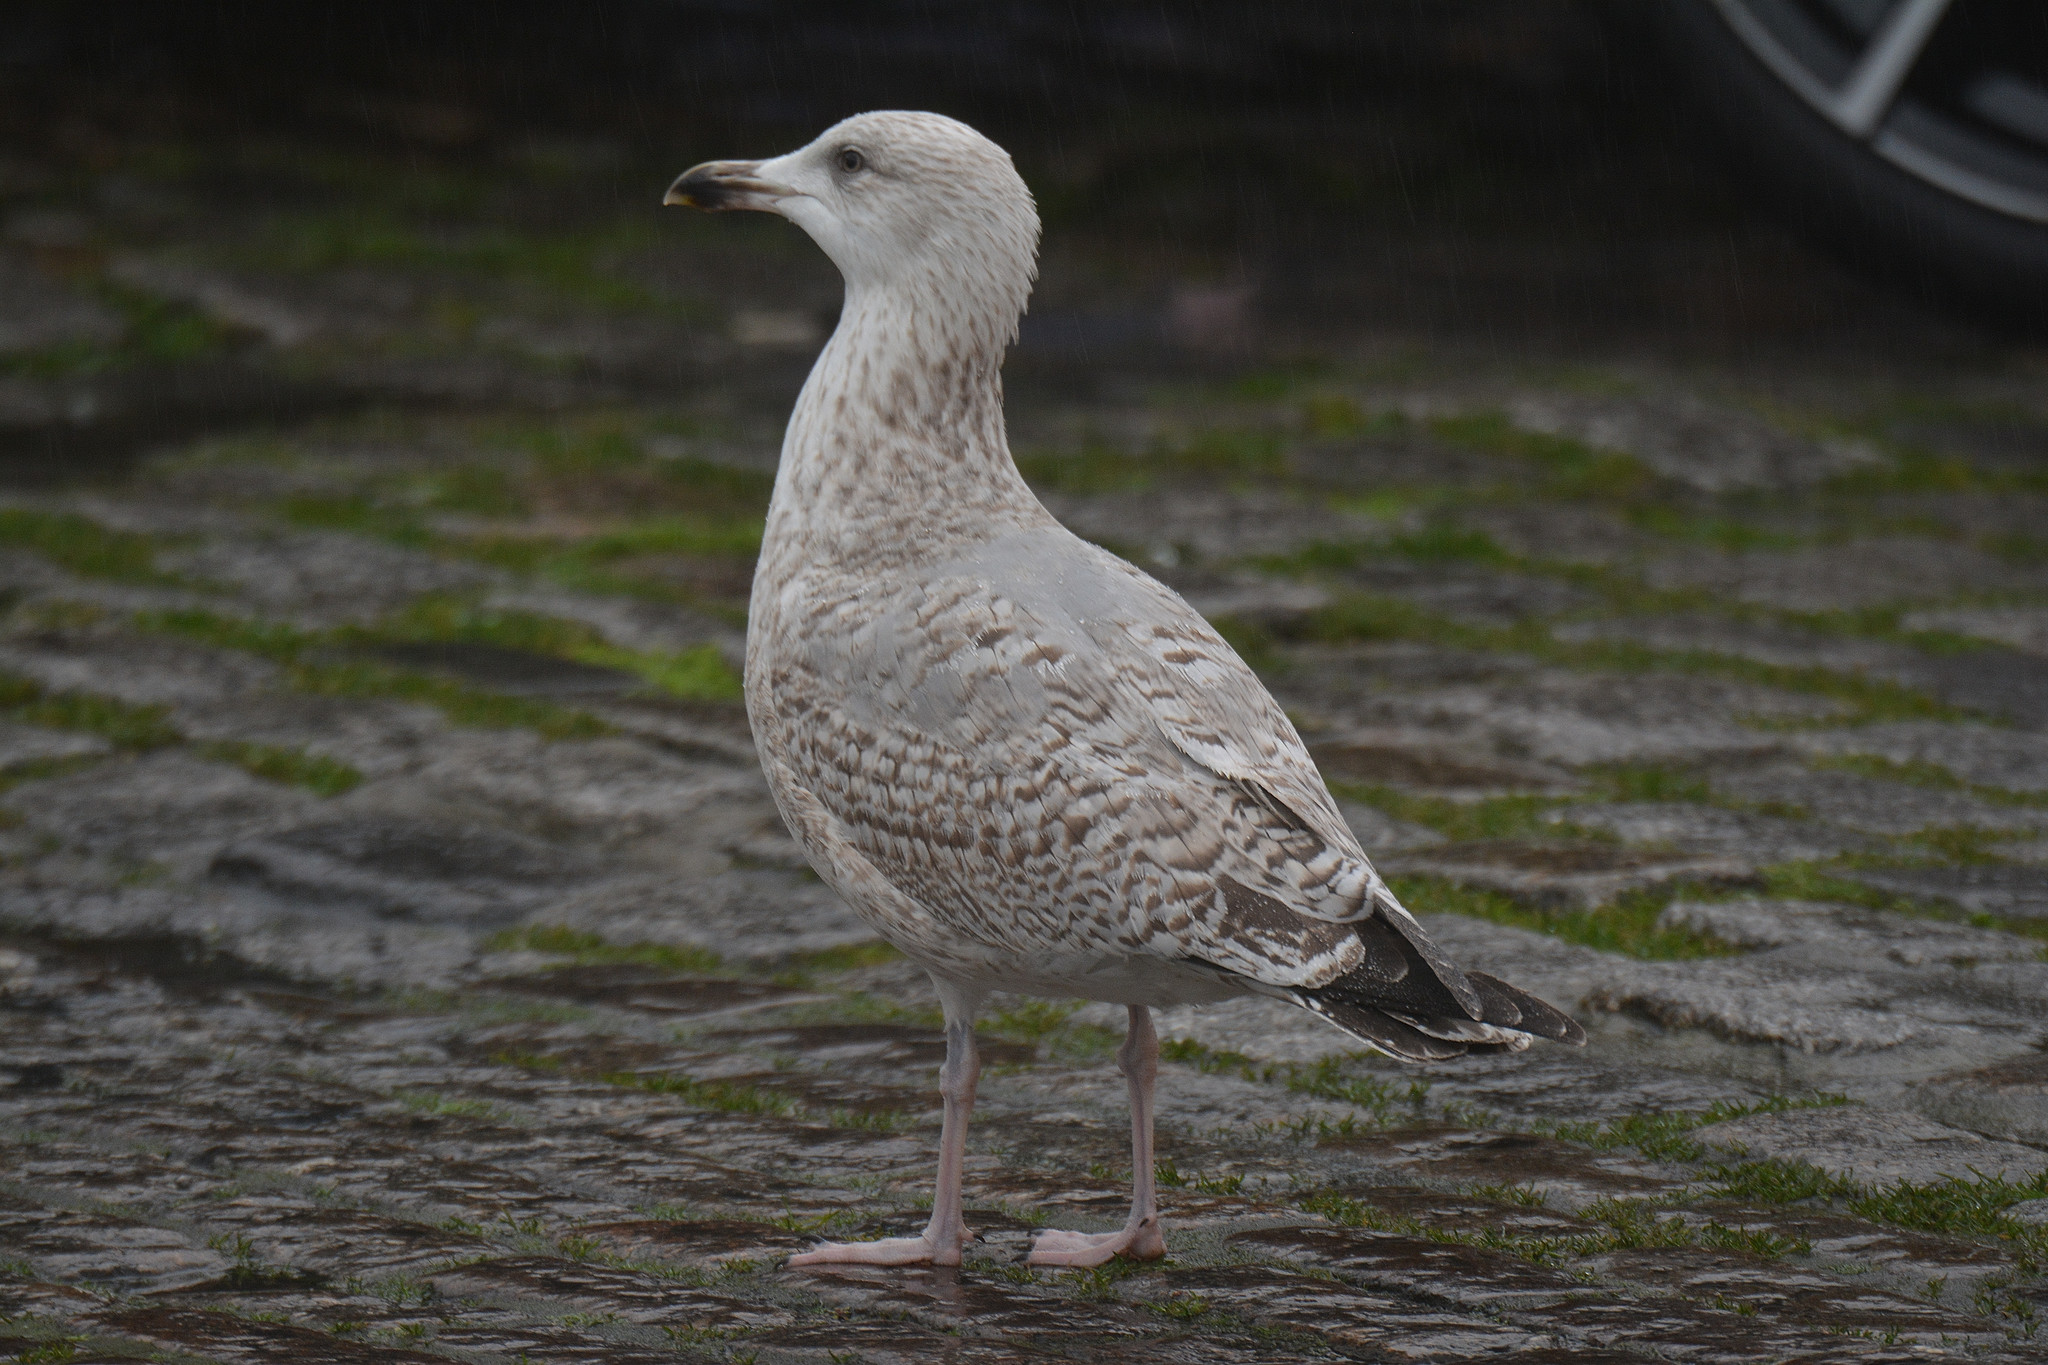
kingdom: Animalia
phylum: Chordata
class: Aves
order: Charadriiformes
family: Laridae
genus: Larus
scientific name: Larus argentatus
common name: Herring gull
